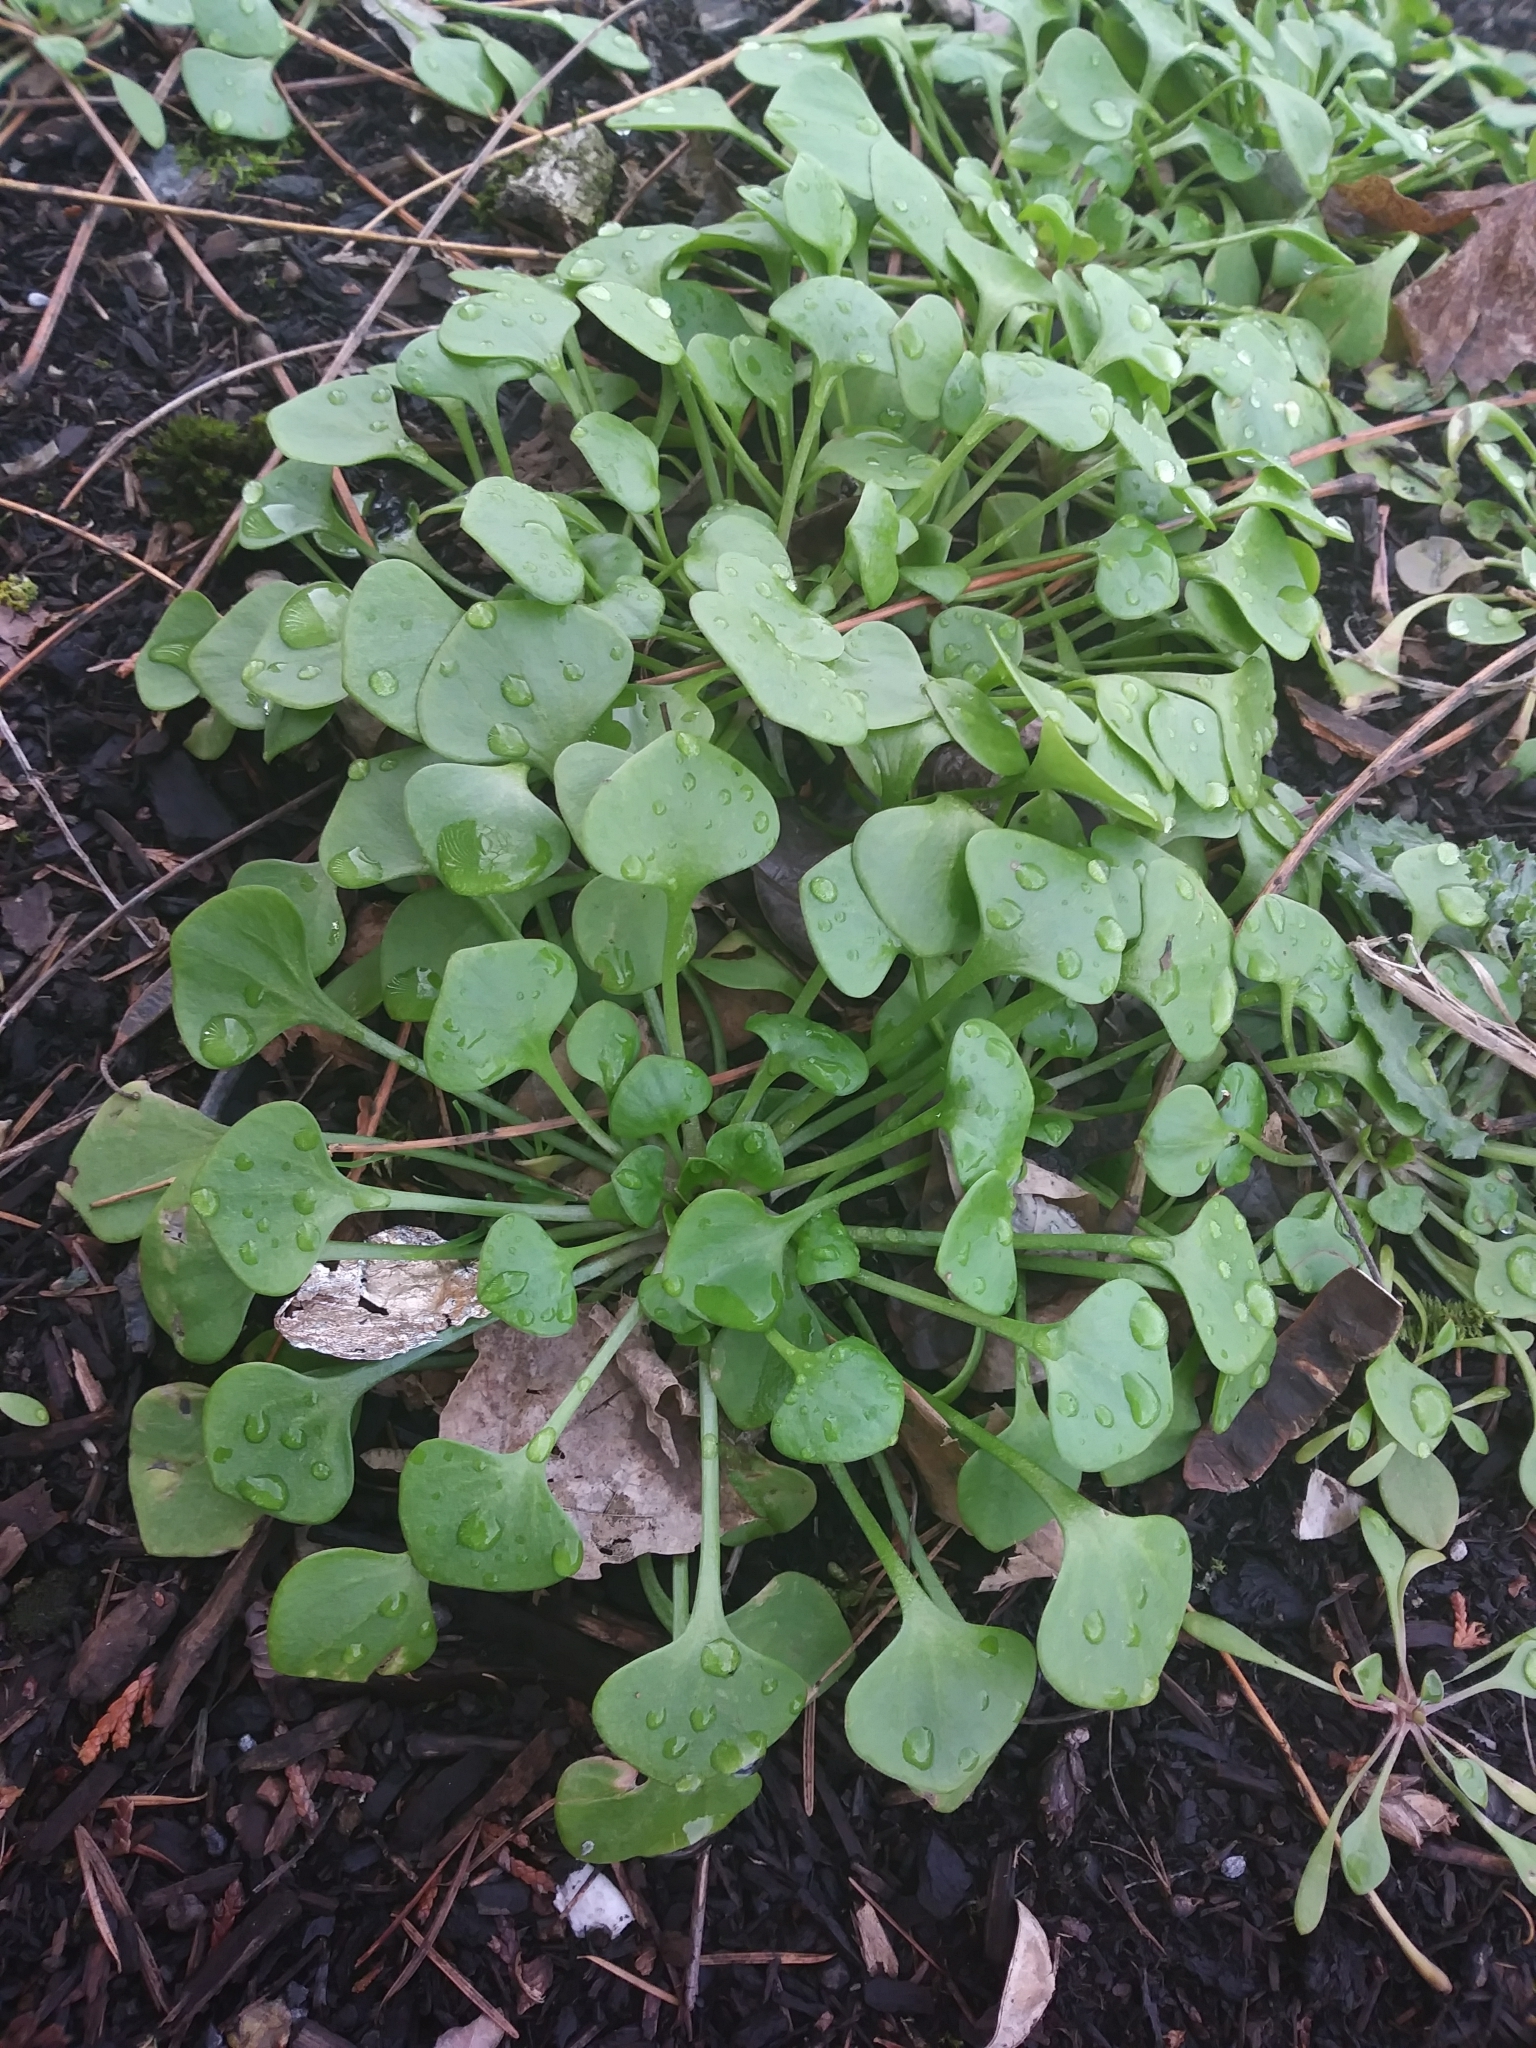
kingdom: Plantae
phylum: Tracheophyta
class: Magnoliopsida
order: Caryophyllales
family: Montiaceae
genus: Claytonia
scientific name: Claytonia perfoliata
